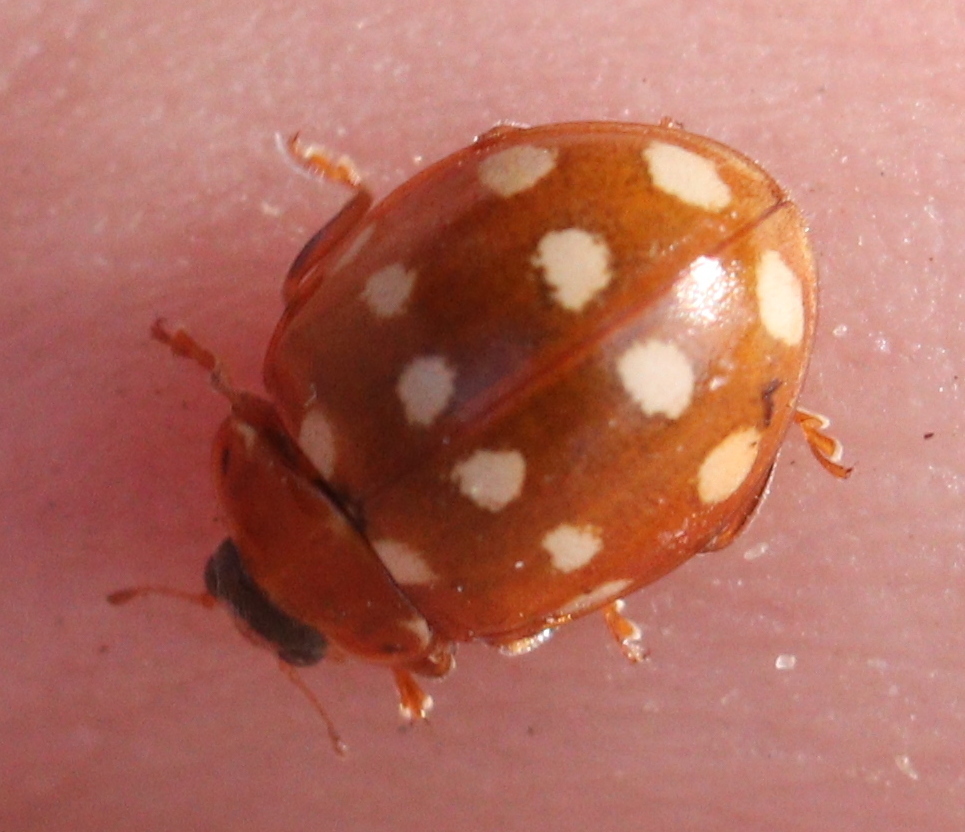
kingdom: Animalia
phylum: Arthropoda
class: Insecta
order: Coleoptera
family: Coccinellidae
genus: Calvia
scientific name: Calvia quatuordecimguttata
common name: Cream-spot ladybird
